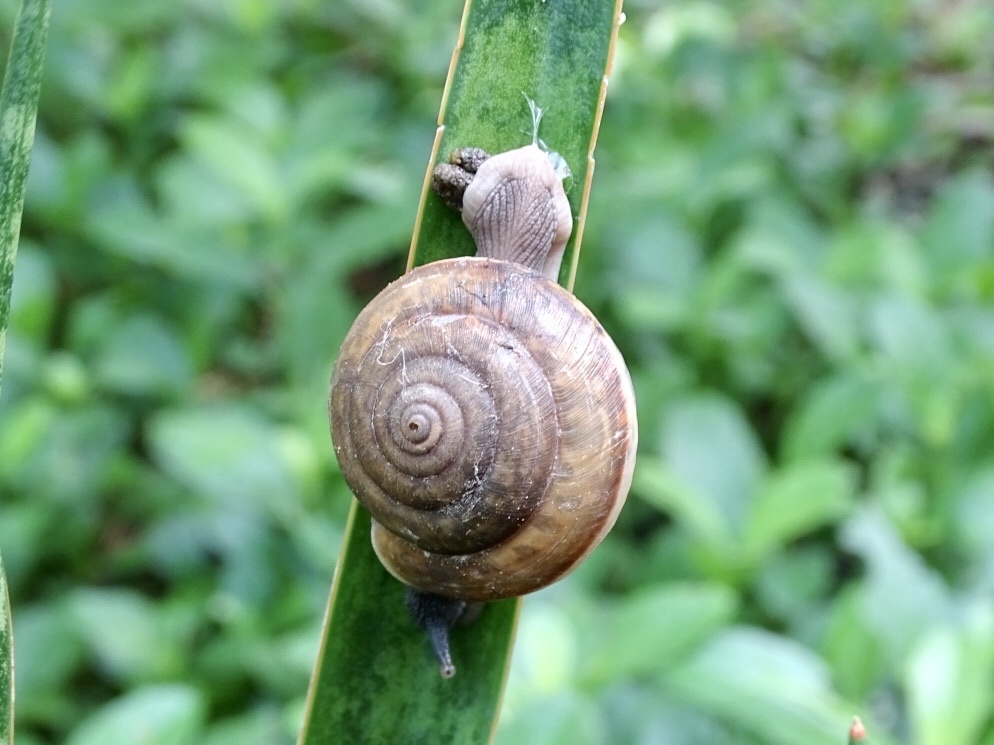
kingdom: Animalia
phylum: Mollusca
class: Gastropoda
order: Stylommatophora
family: Ariophantidae
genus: Sarika
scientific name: Sarika siamensis
